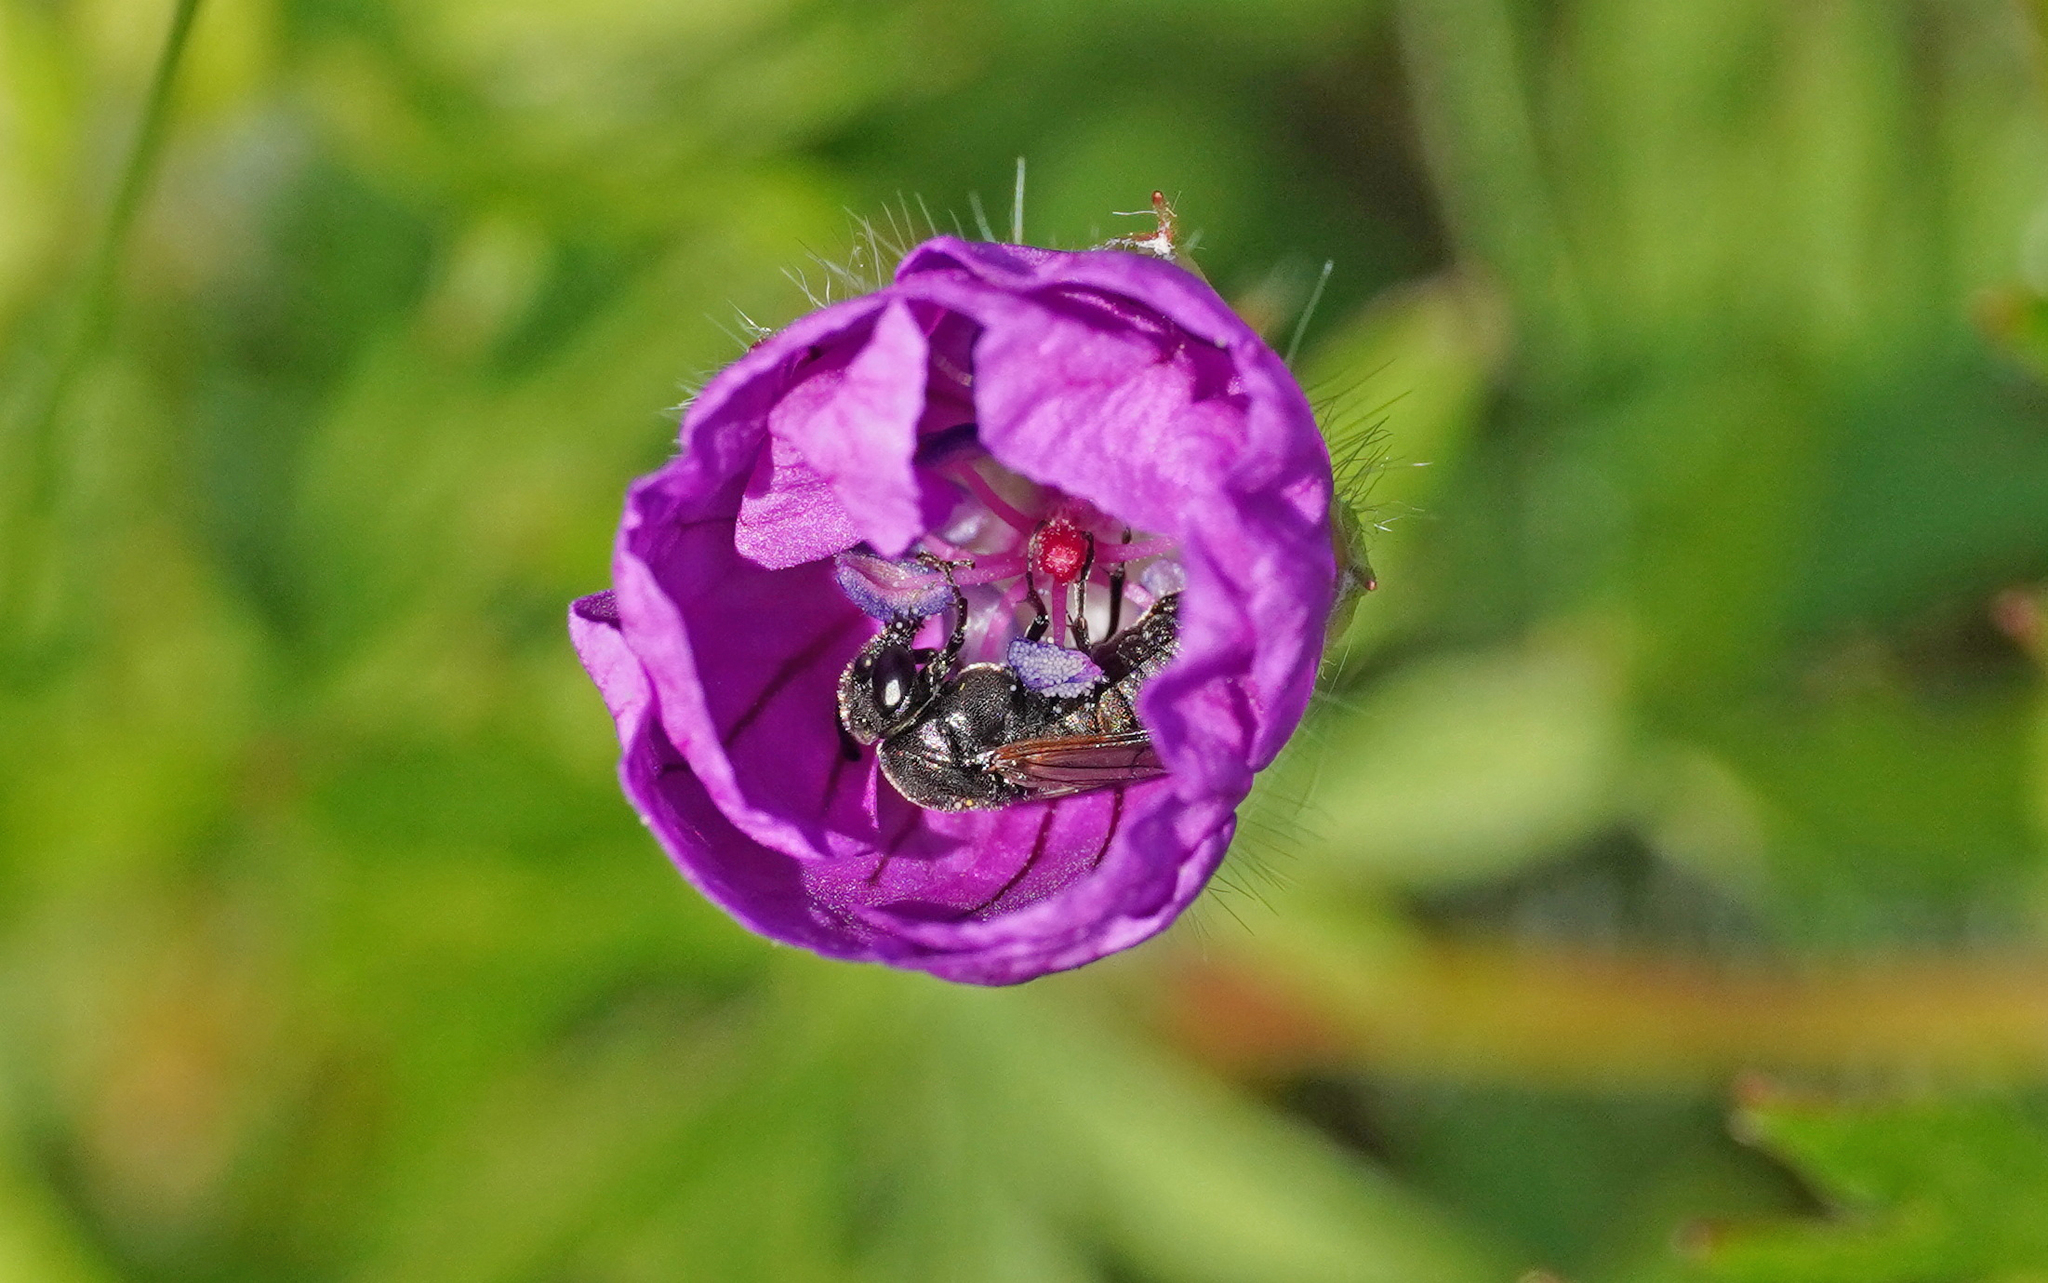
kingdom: Animalia
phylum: Arthropoda
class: Insecta
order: Hymenoptera
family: Cimbicidae
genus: Corynis
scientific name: Corynis obscura
